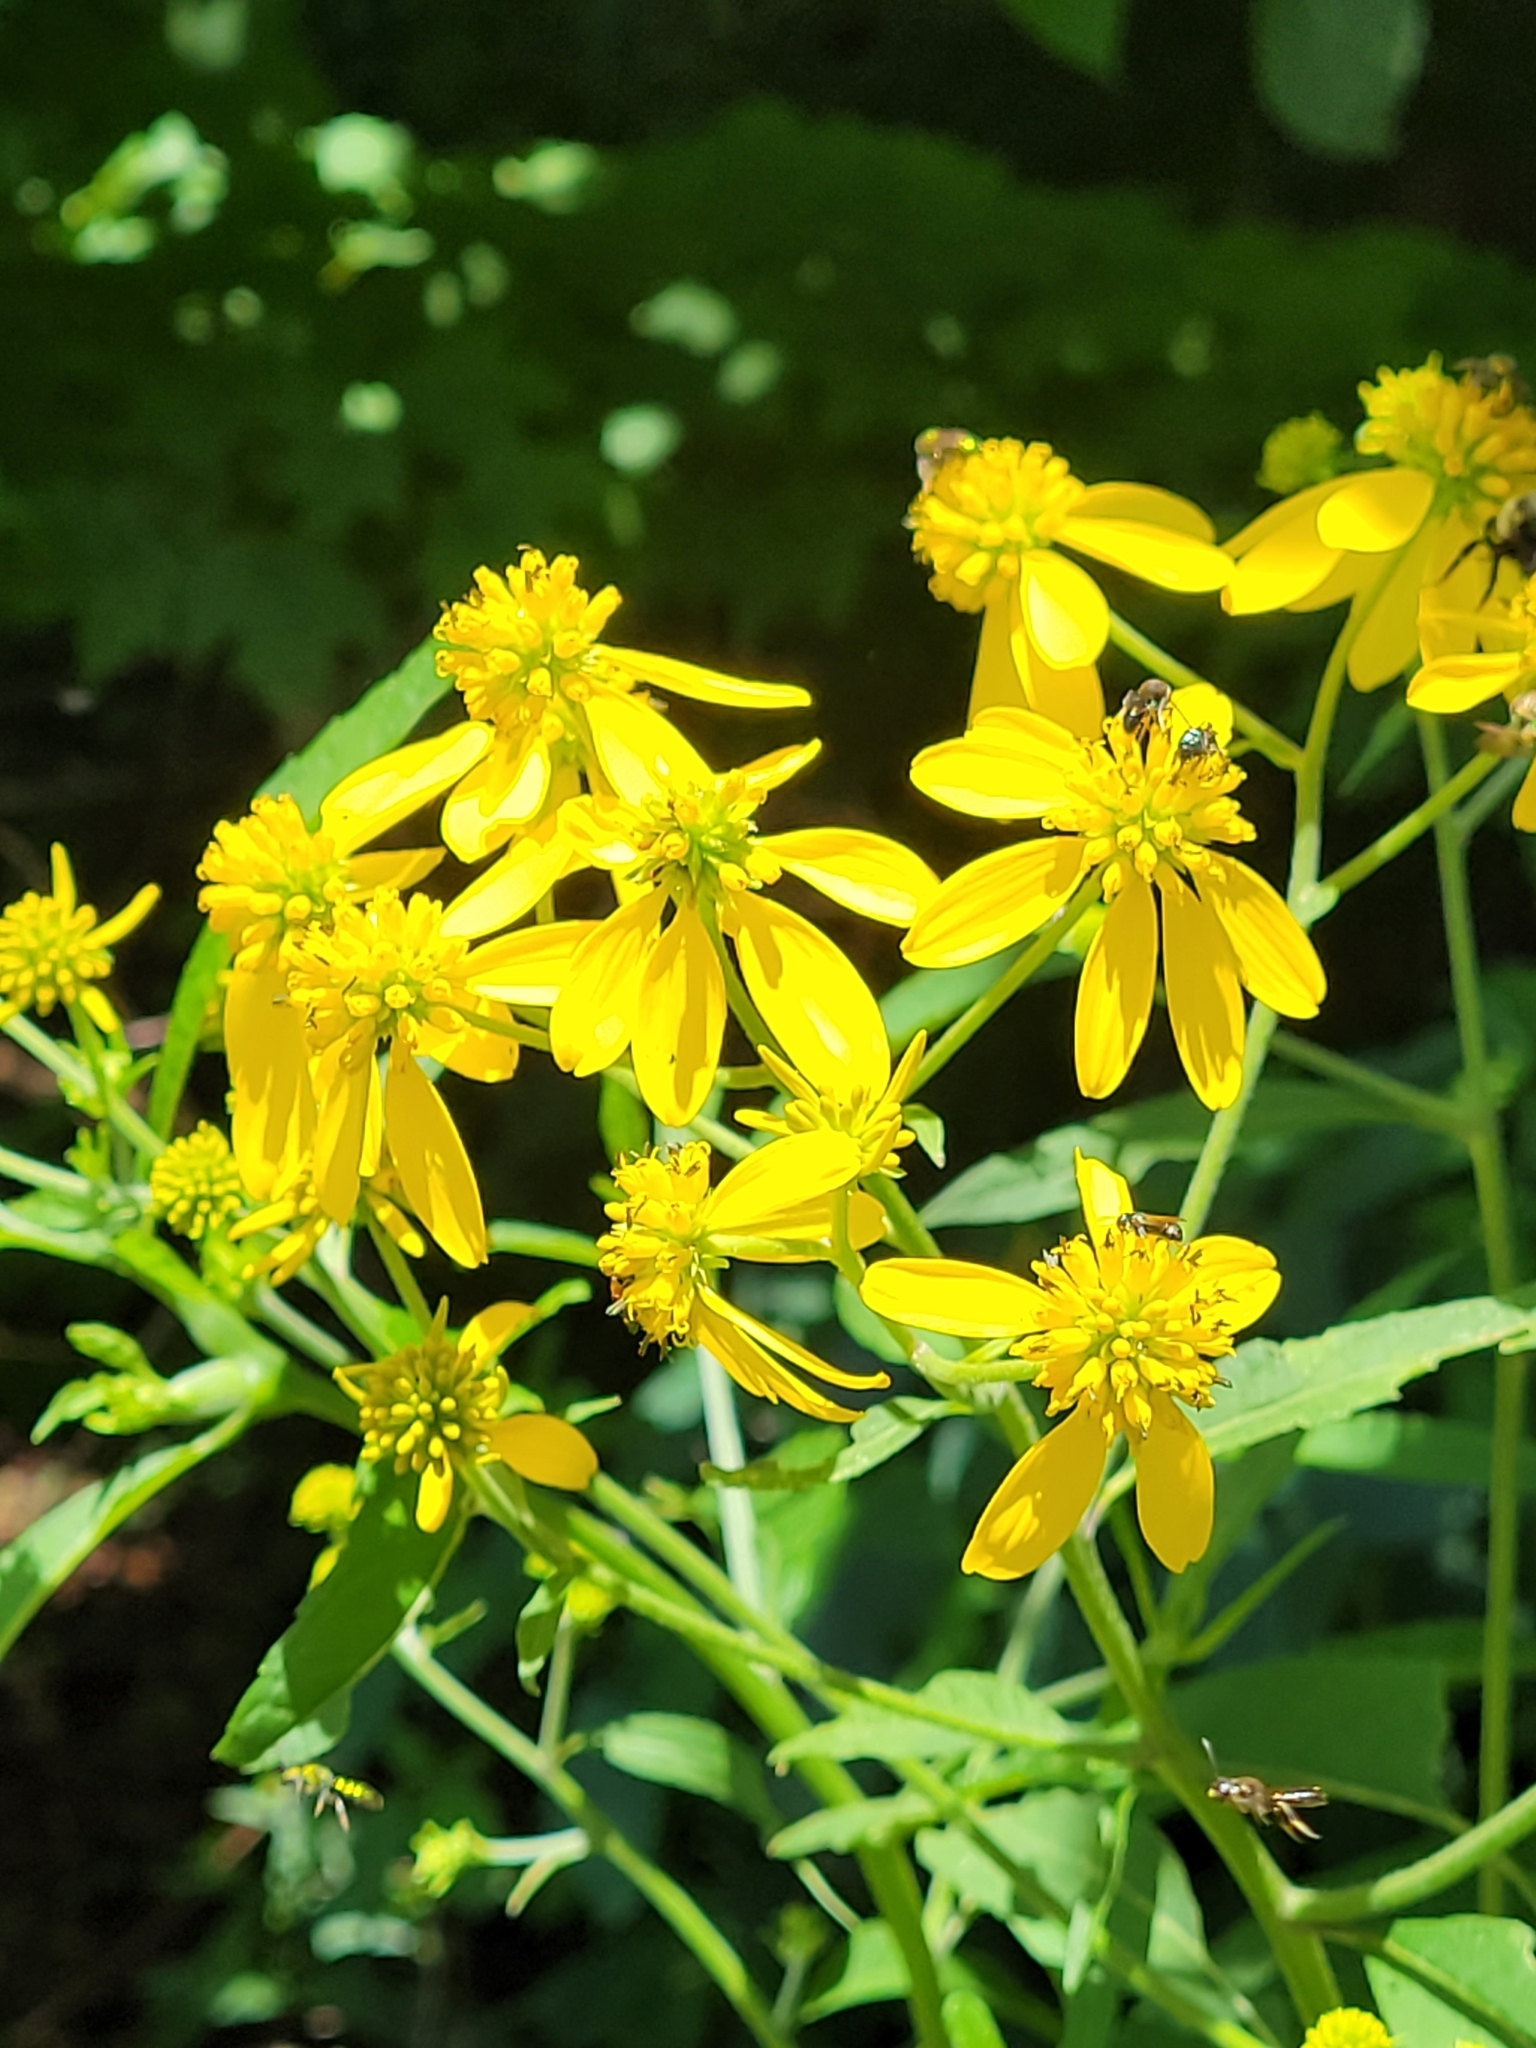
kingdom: Plantae
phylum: Tracheophyta
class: Magnoliopsida
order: Asterales
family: Asteraceae
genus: Verbesina
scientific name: Verbesina alternifolia
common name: Wingstem
